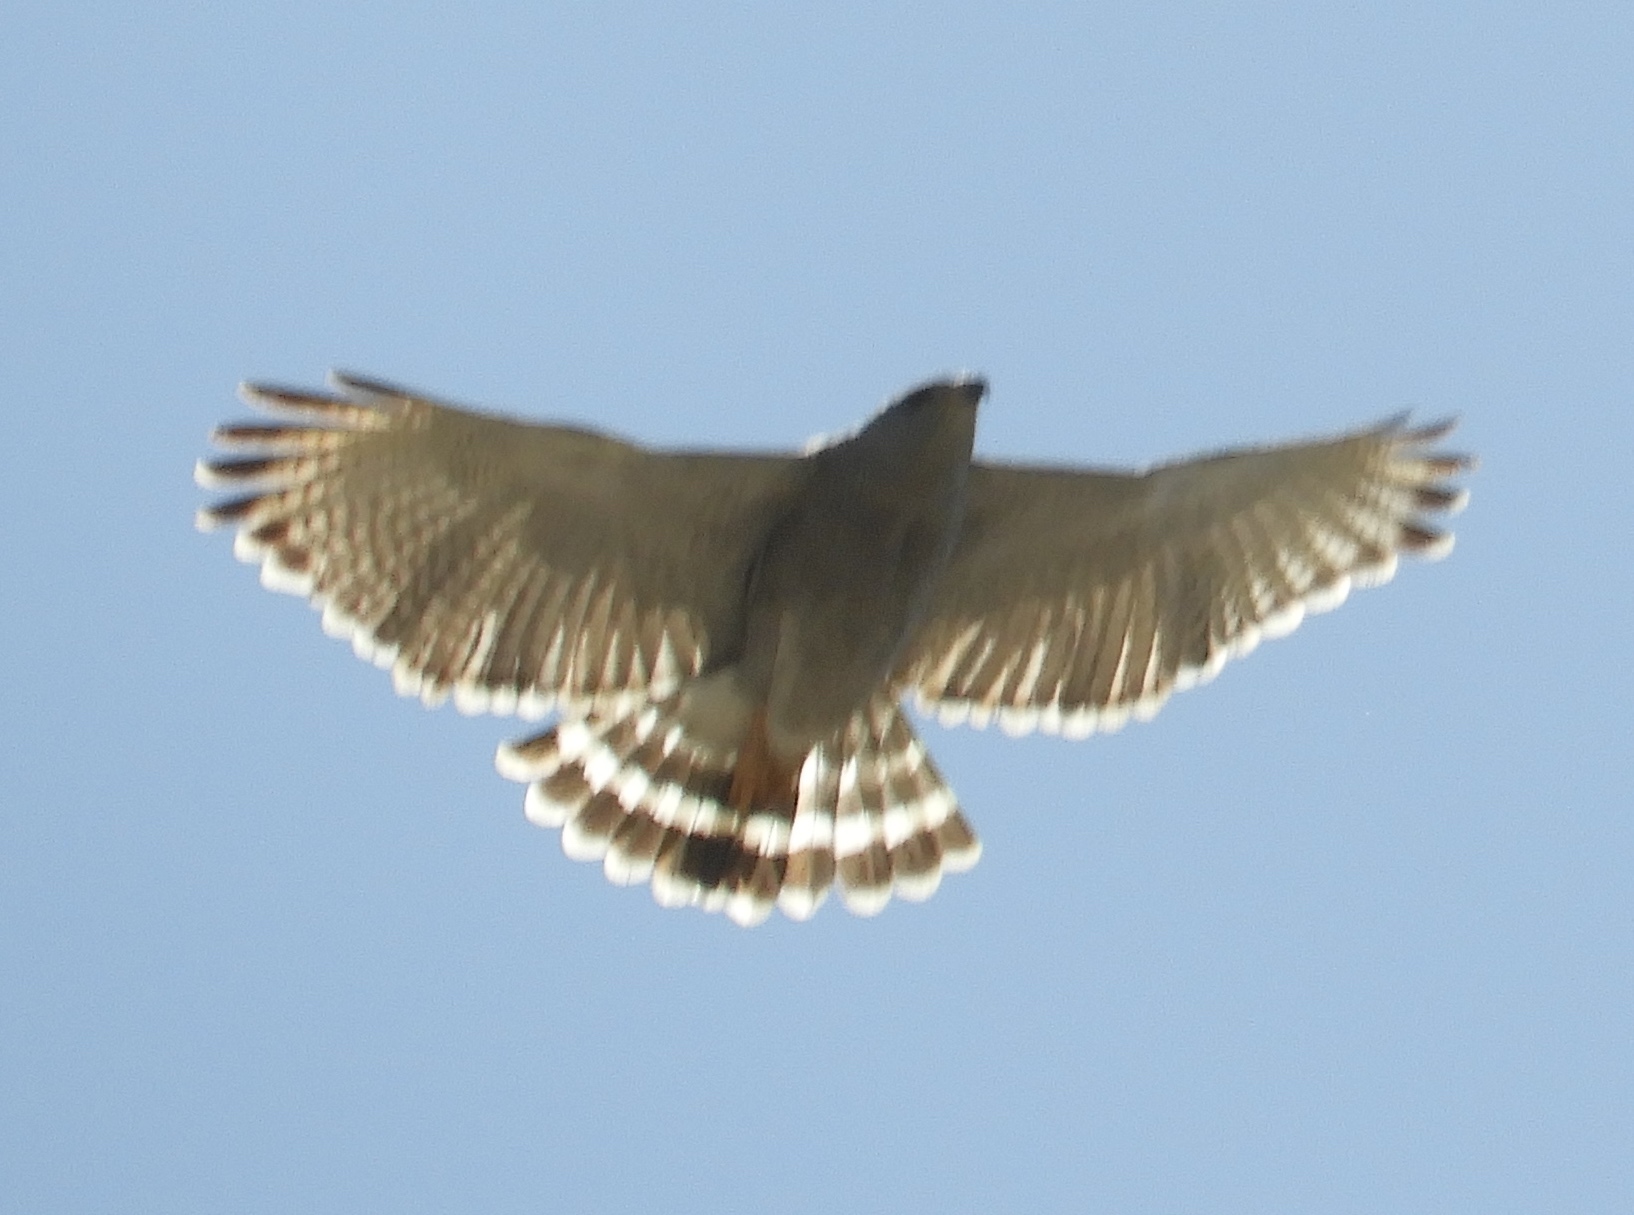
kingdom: Animalia
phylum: Chordata
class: Aves
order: Accipitriformes
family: Accipitridae
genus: Buteo
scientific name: Buteo nitidus
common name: Grey-lined hawk
